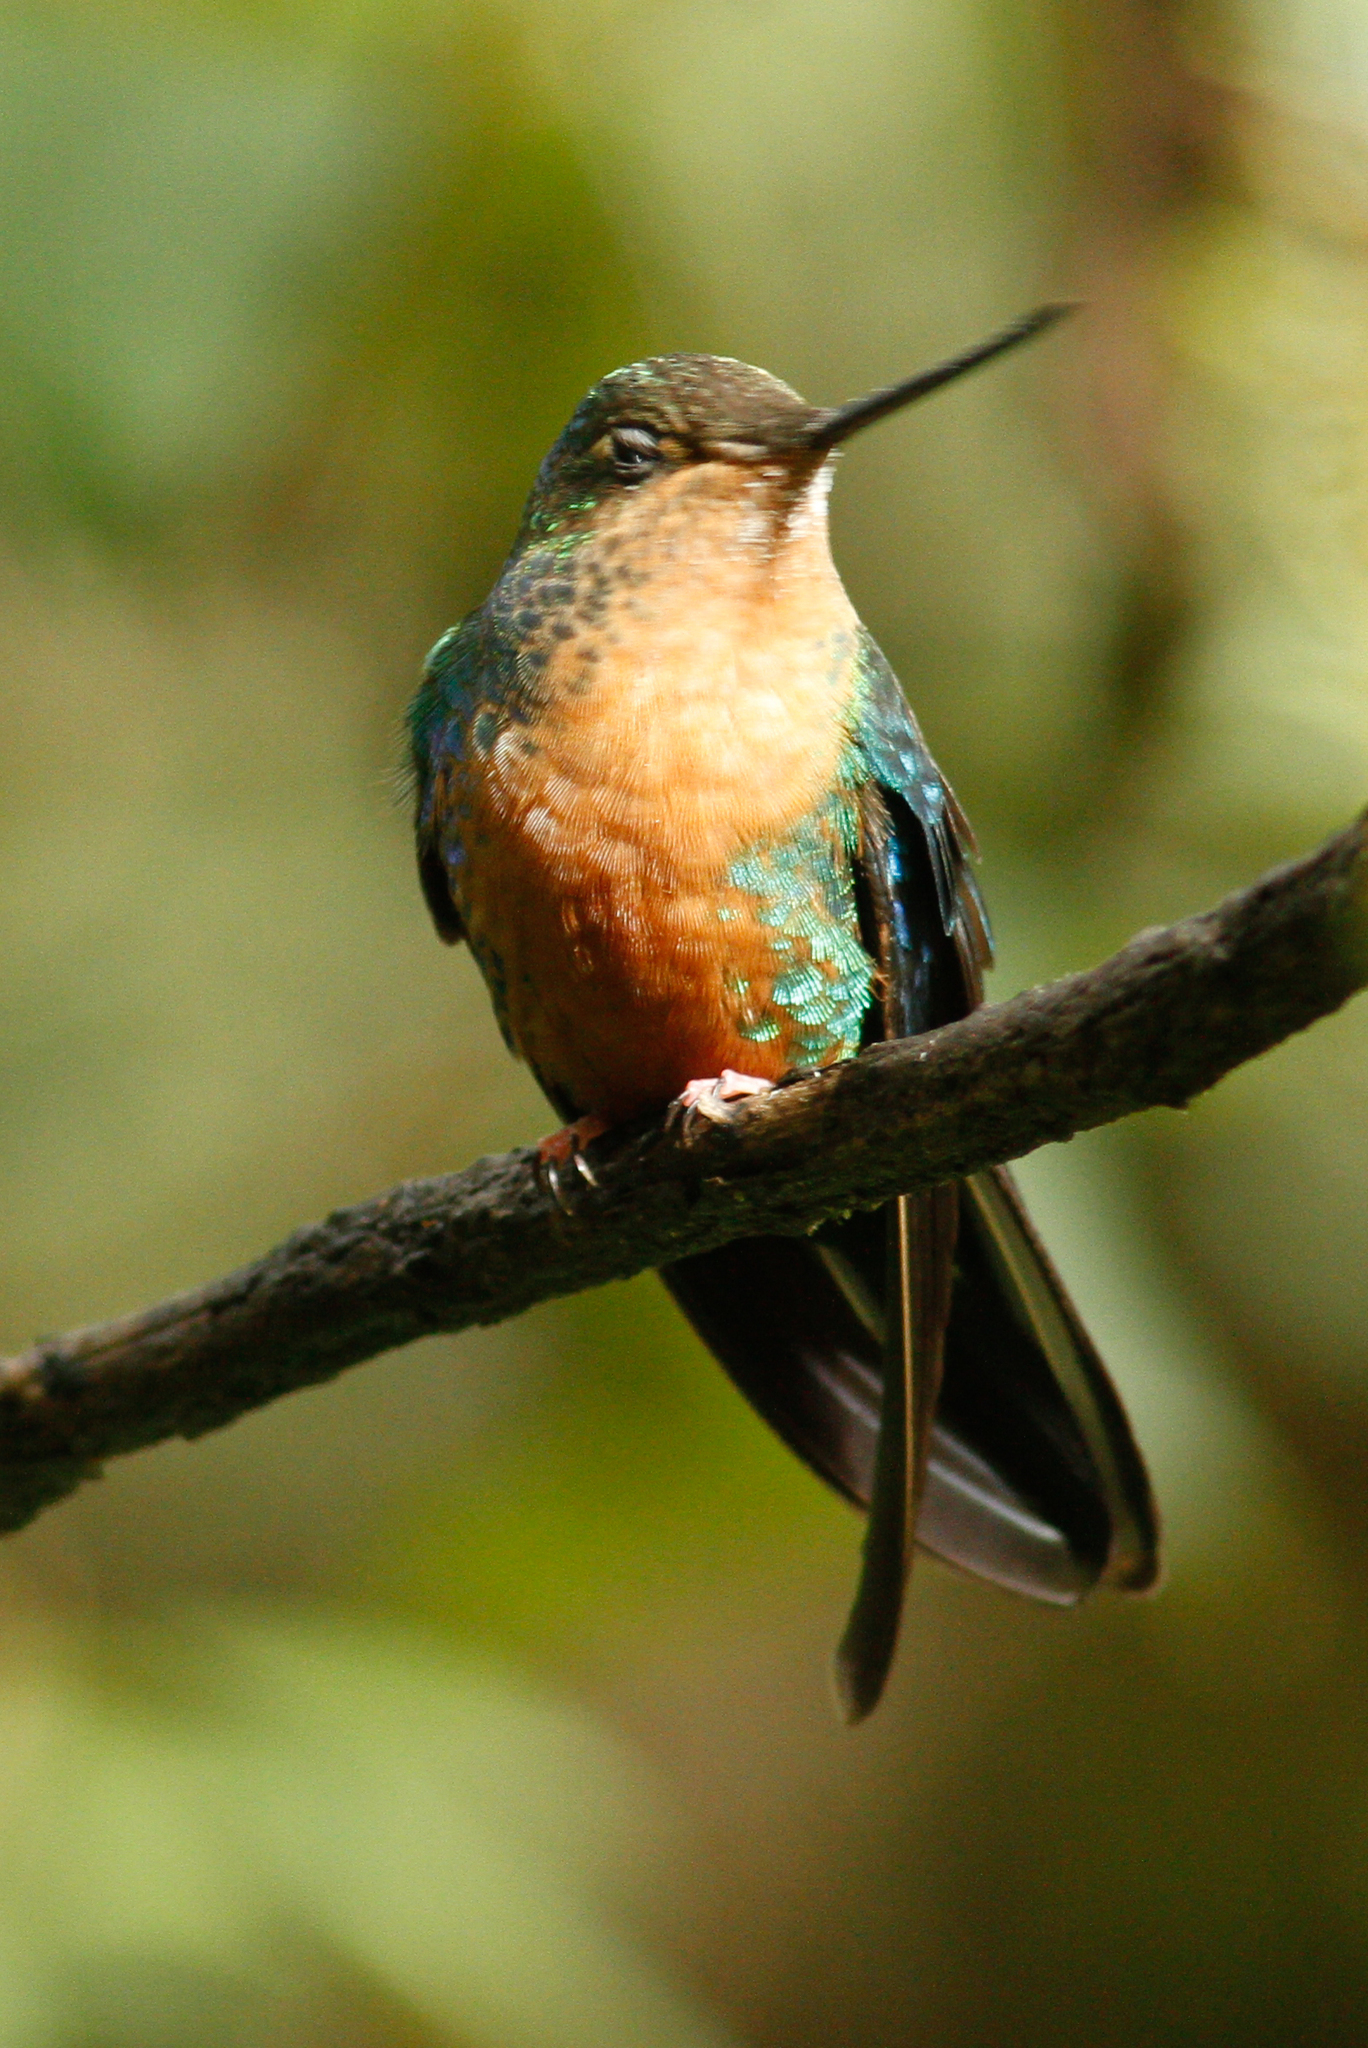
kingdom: Animalia
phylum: Chordata
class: Aves
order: Apodiformes
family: Trochilidae
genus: Pterophanes
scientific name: Pterophanes cyanopterus
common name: Great sapphirewing
